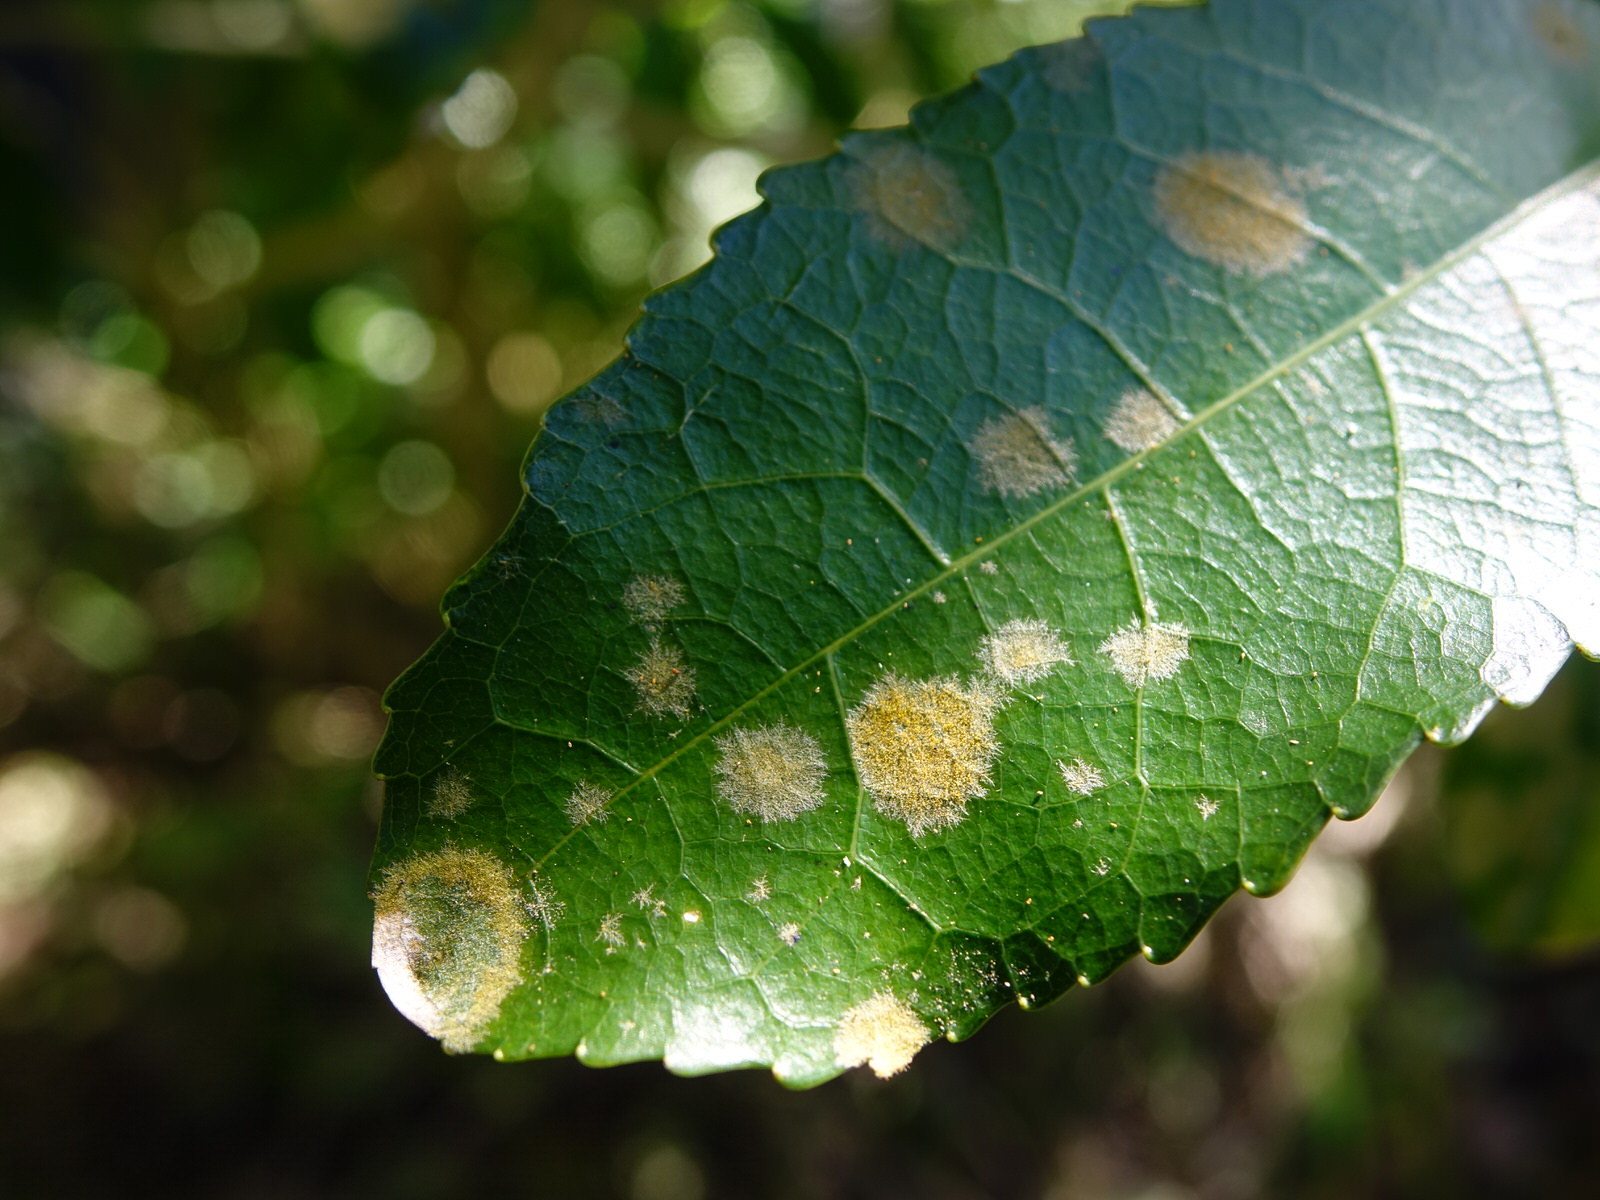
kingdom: Plantae
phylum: Chlorophyta
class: Ulvophyceae
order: Trentepohliales
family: Trentepohliaceae
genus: Cephaleuros
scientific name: Cephaleuros
